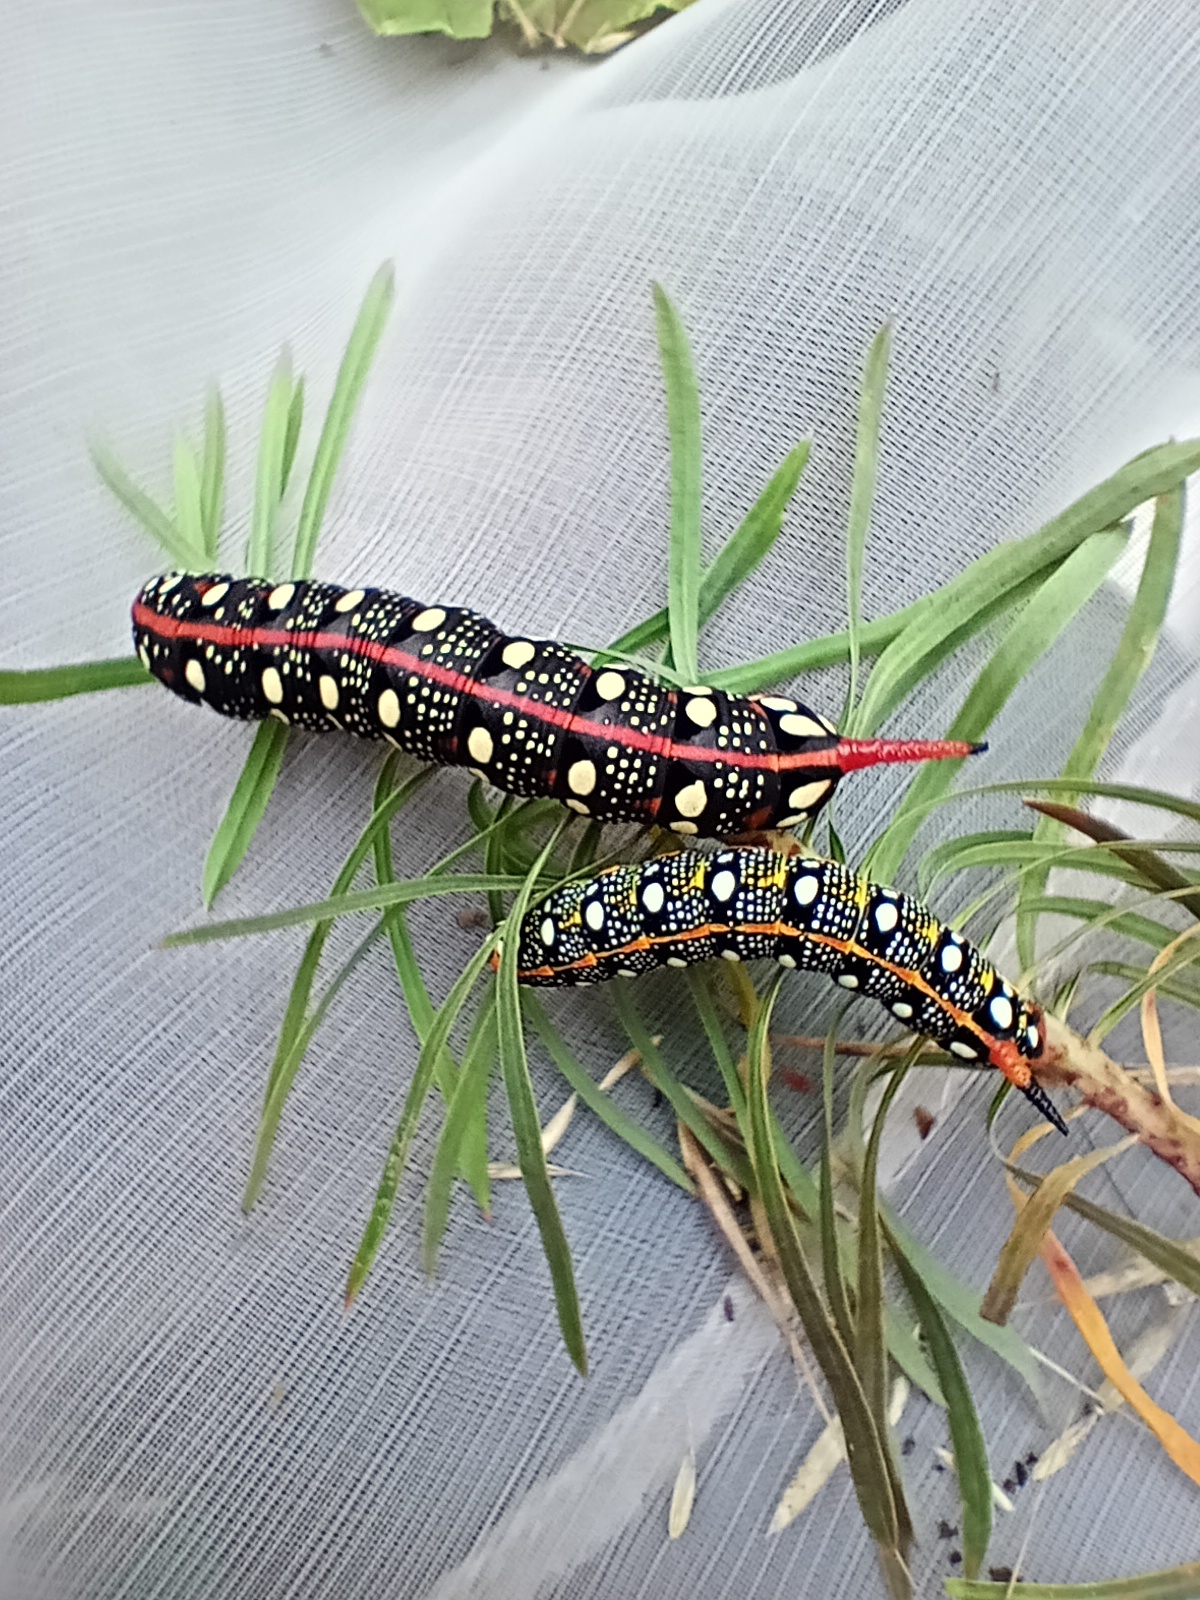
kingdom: Animalia
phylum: Arthropoda
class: Insecta
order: Lepidoptera
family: Sphingidae
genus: Hyles
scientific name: Hyles euphorbiae
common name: Spurge hawk-moth
